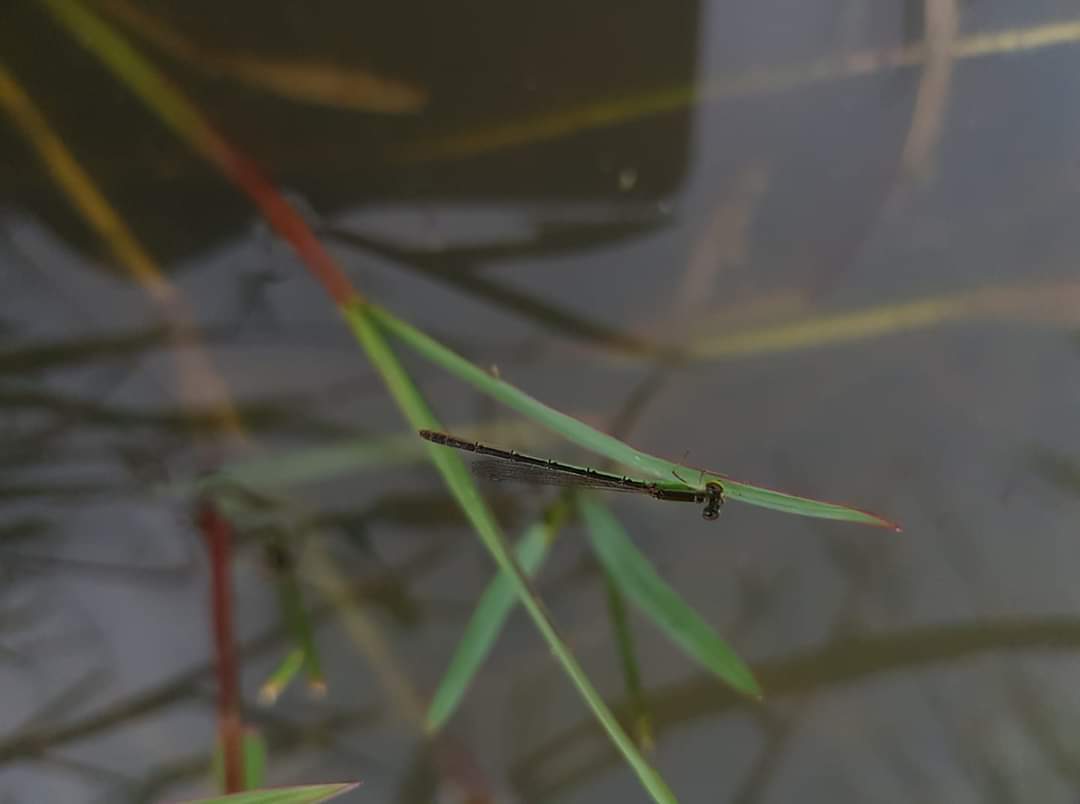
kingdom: Animalia
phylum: Arthropoda
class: Insecta
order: Odonata
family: Coenagrionidae
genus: Agriocnemis
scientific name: Agriocnemis pygmaea
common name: Pygmy wisp
